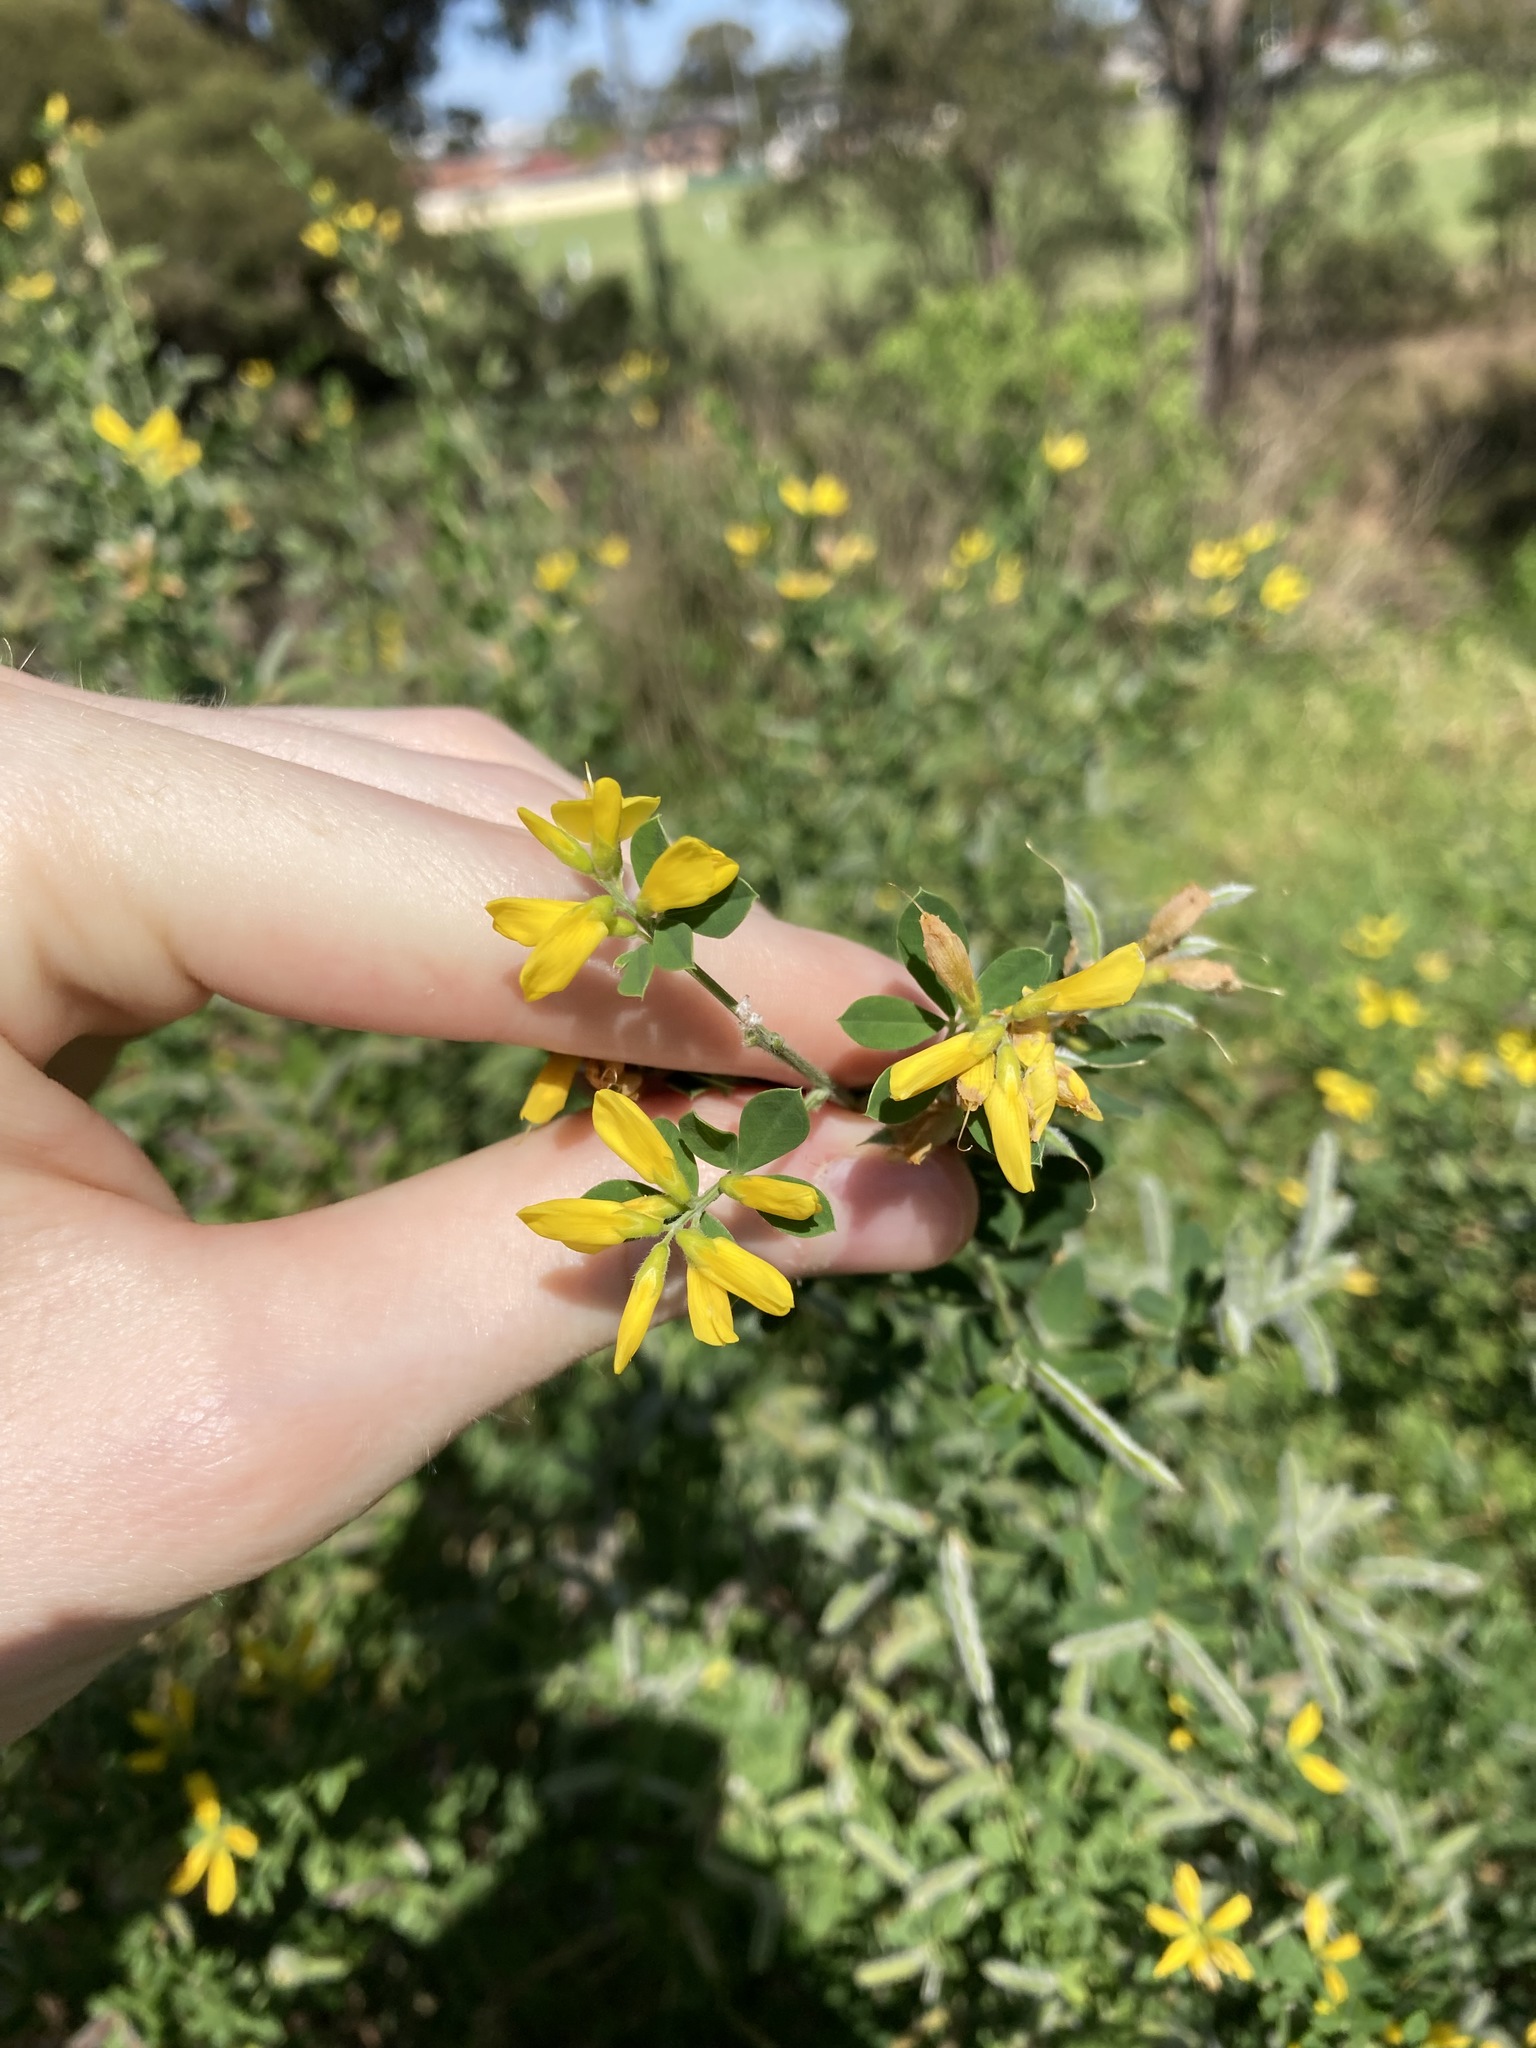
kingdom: Plantae
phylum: Tracheophyta
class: Magnoliopsida
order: Fabales
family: Fabaceae
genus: Genista
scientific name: Genista monspessulana
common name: Montpellier broom
